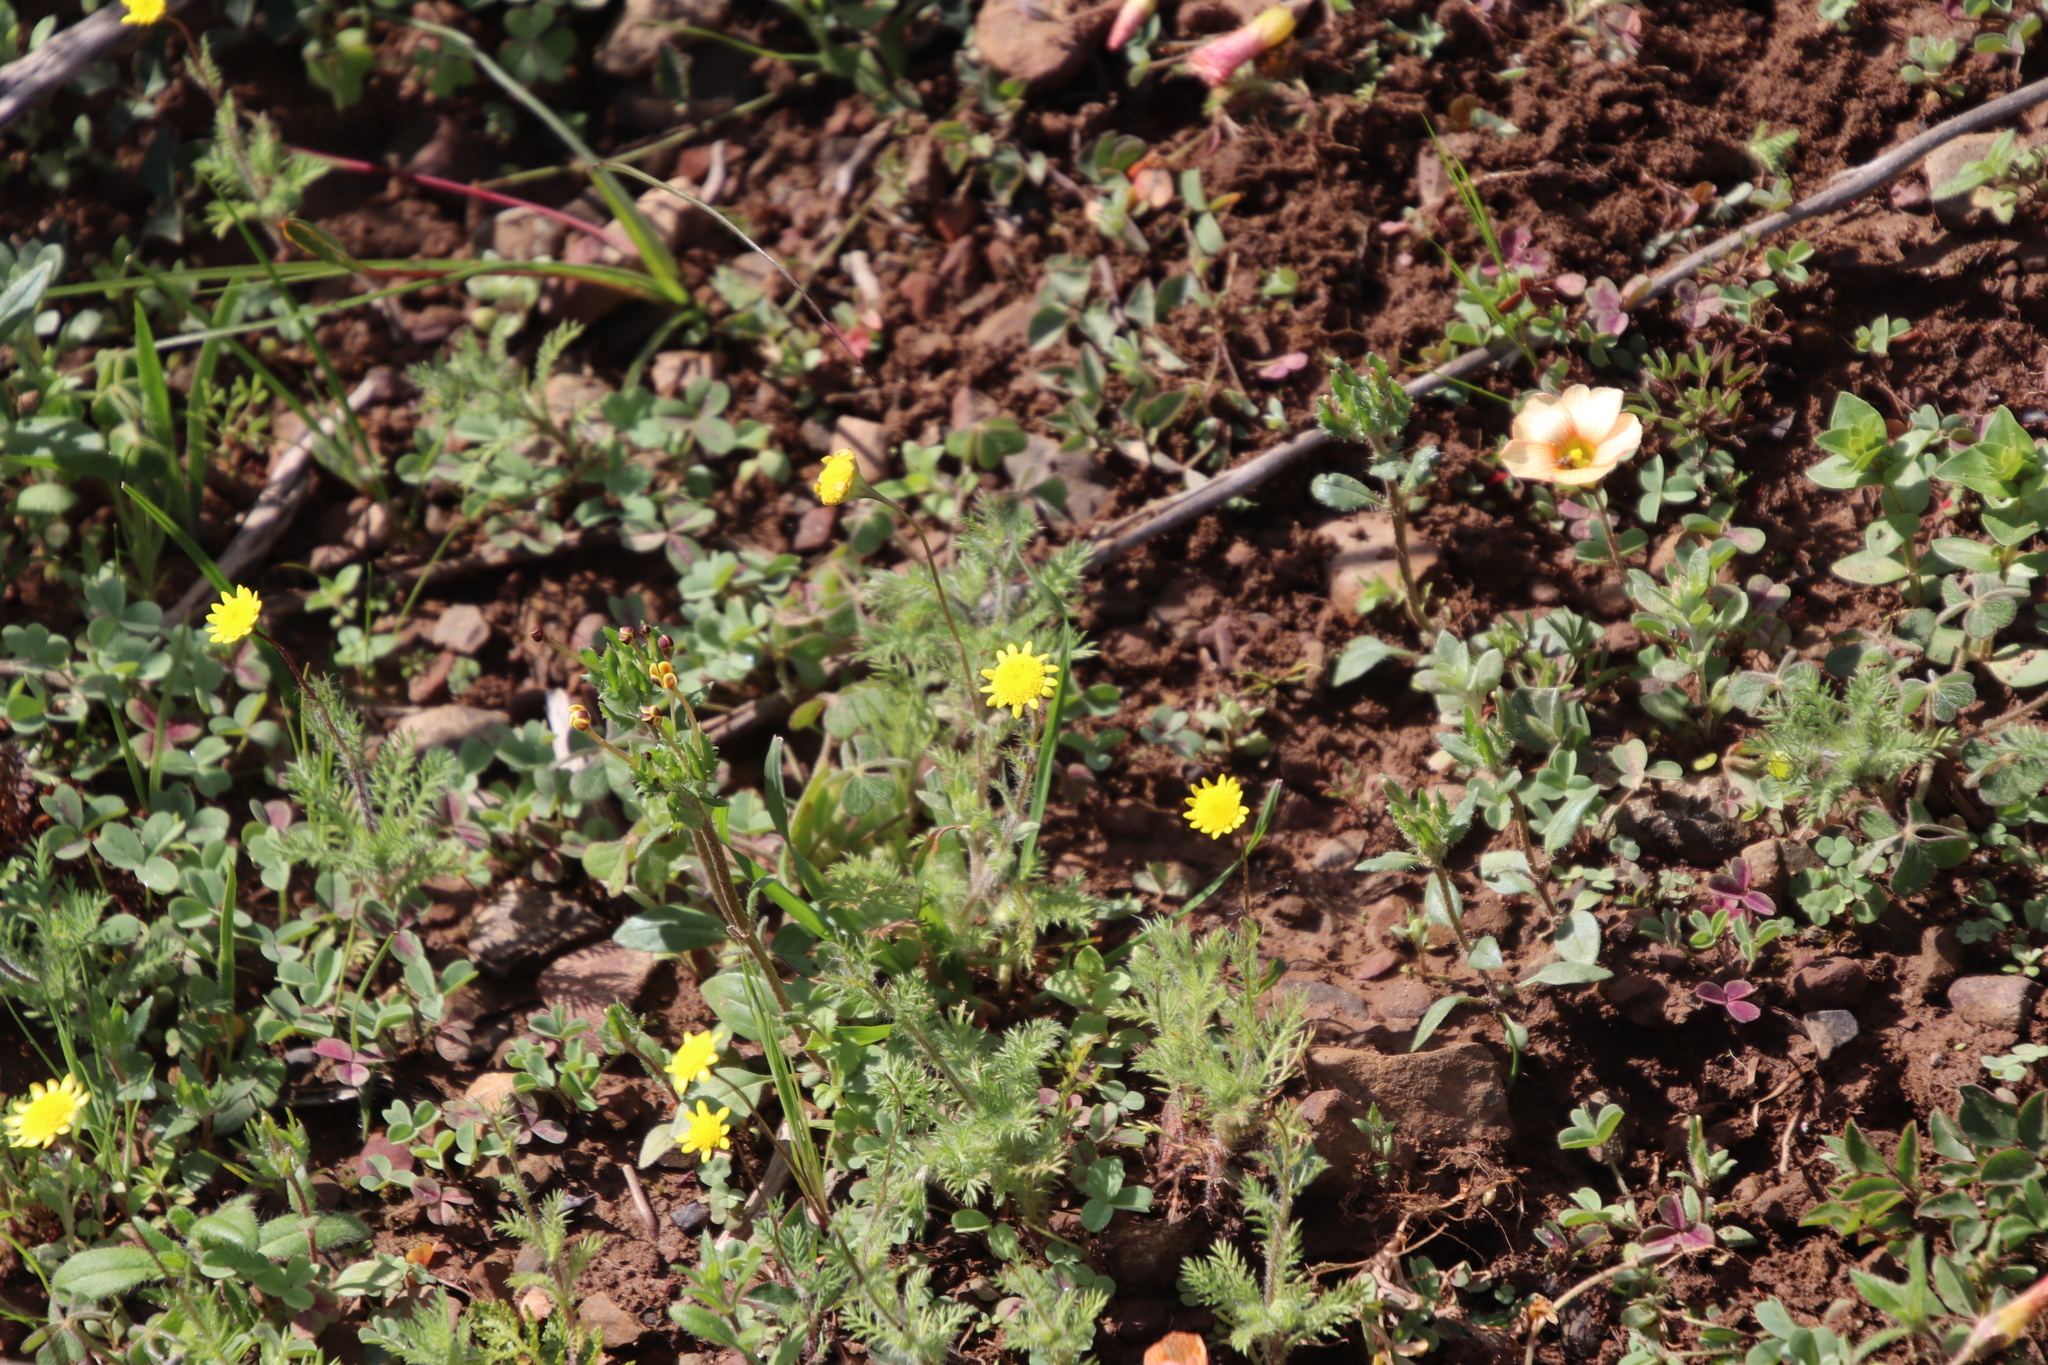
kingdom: Plantae
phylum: Tracheophyta
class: Magnoliopsida
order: Asterales
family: Asteraceae
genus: Cotula
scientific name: Cotula pruinosa
